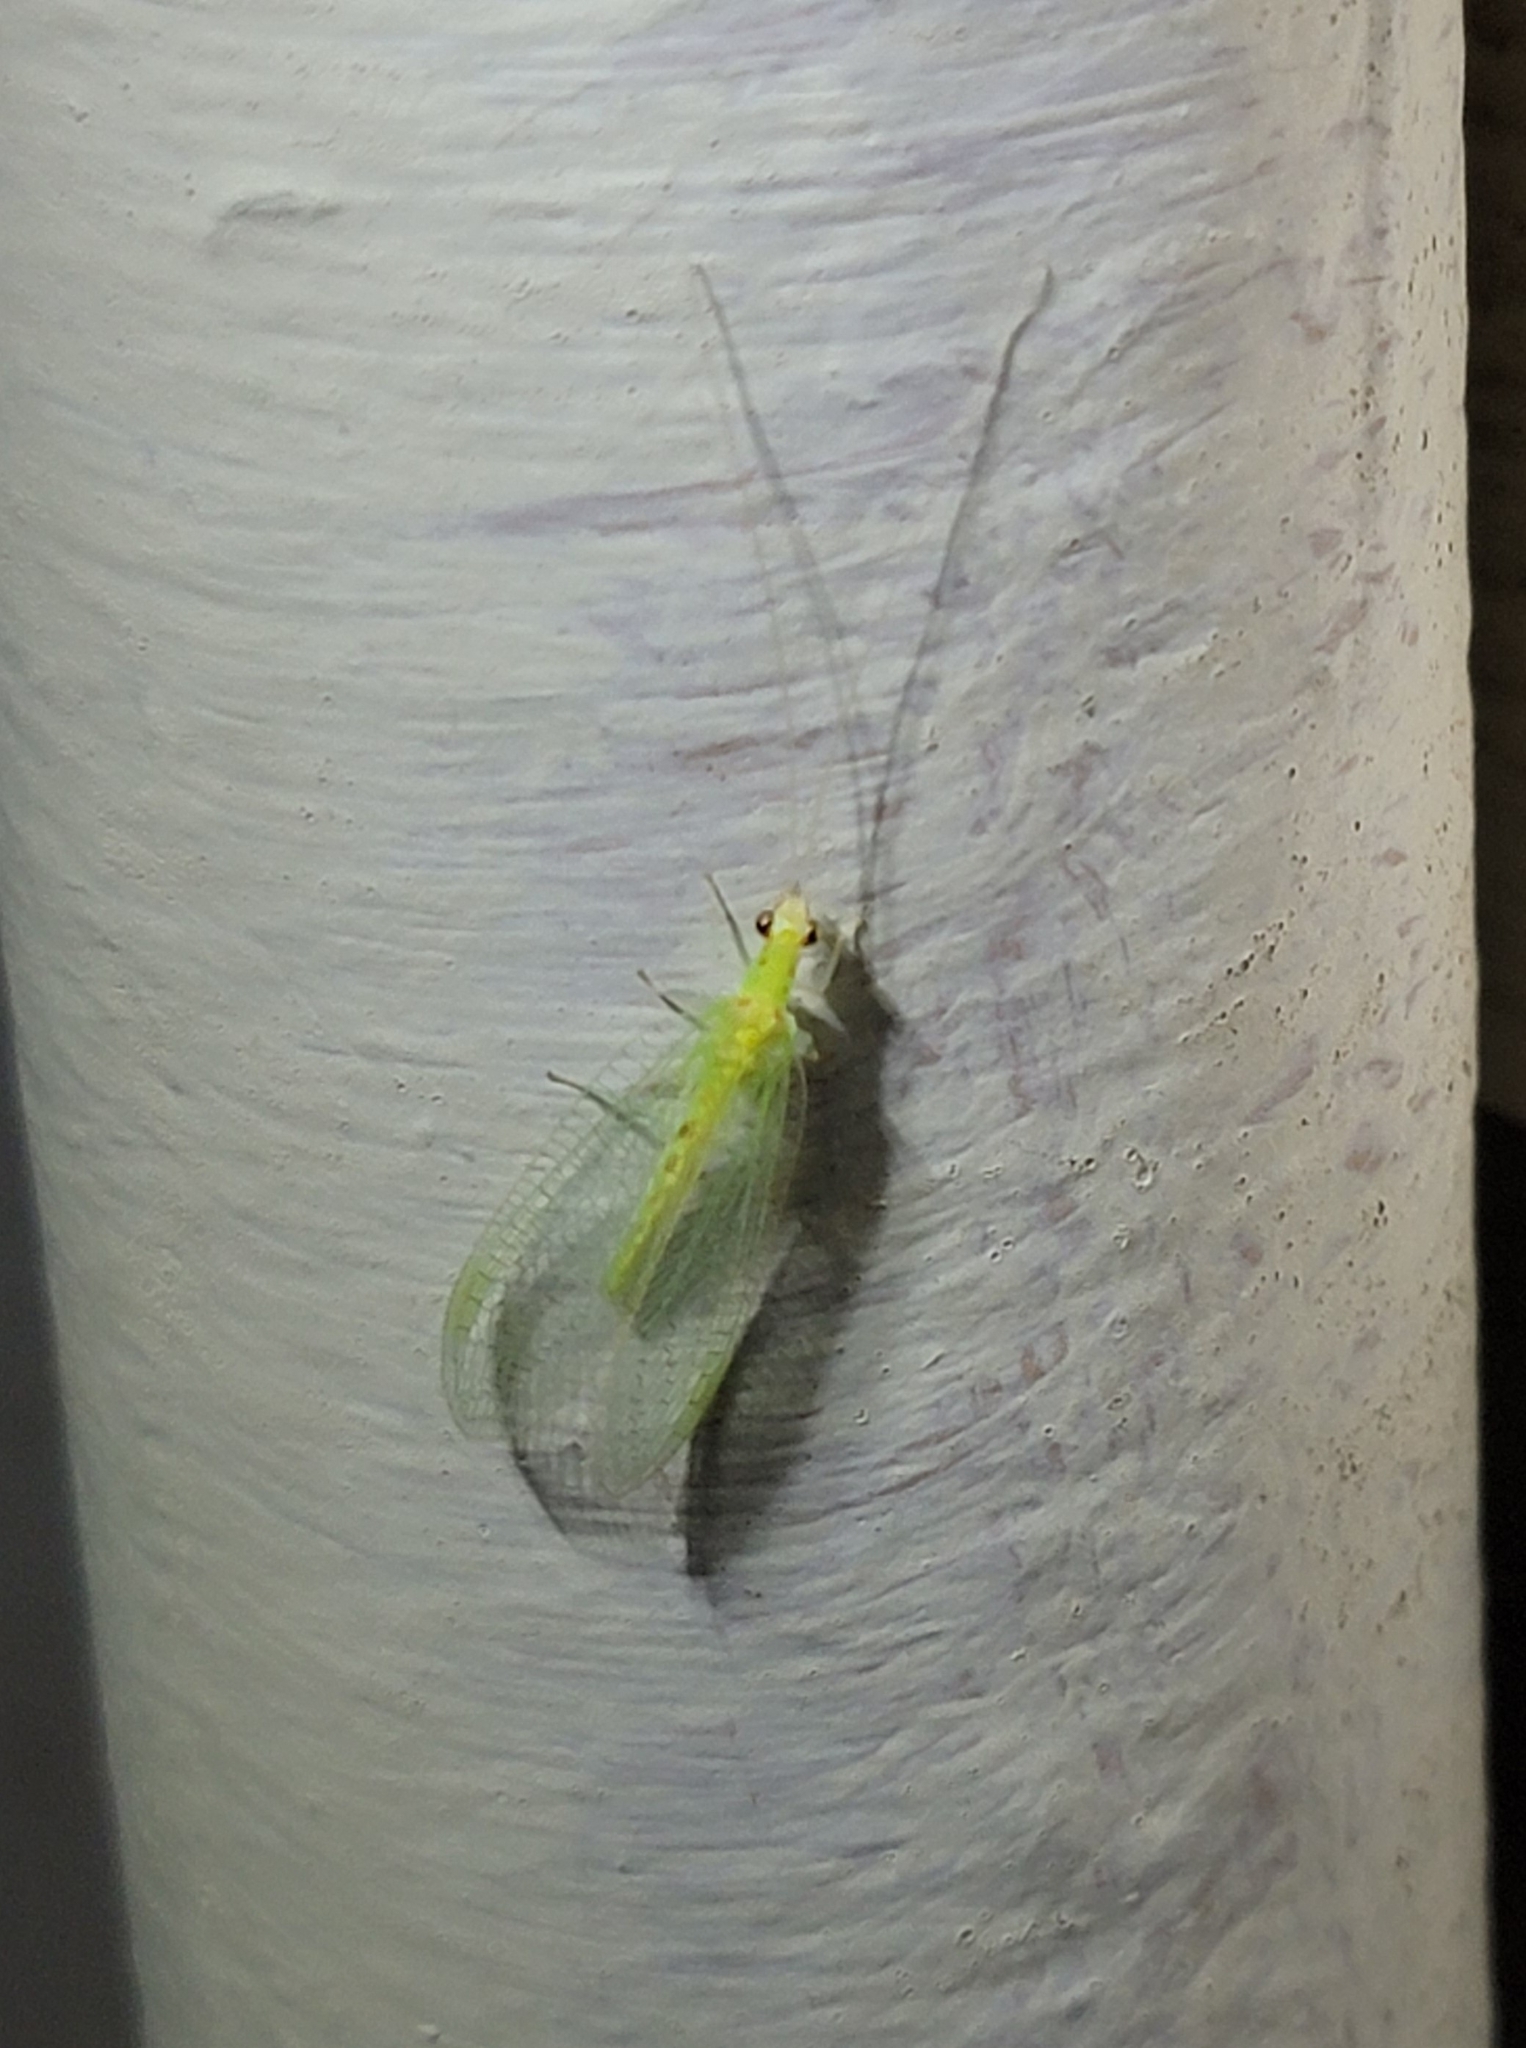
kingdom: Animalia
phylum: Arthropoda
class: Insecta
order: Neuroptera
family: Chrysopidae
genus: Chrysopa
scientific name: Chrysopa quadripunctata
